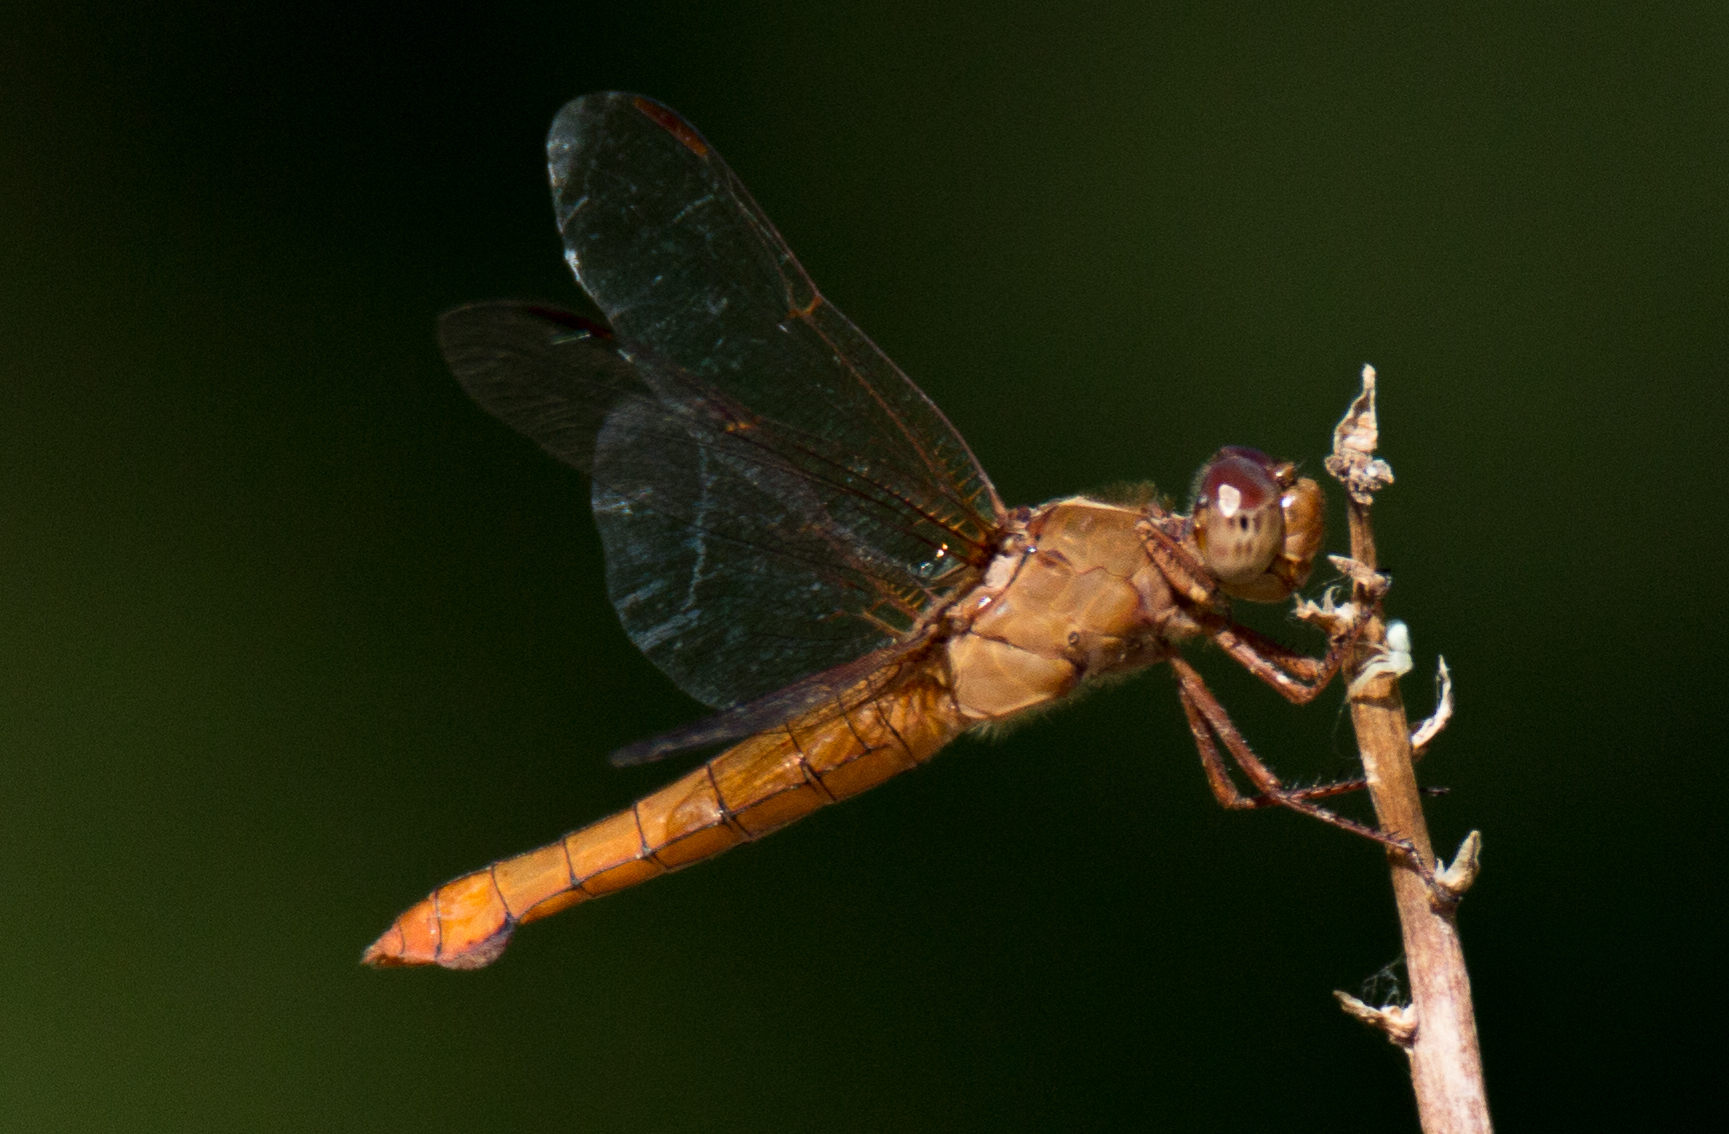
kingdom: Animalia
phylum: Arthropoda
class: Insecta
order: Odonata
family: Libellulidae
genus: Libellula
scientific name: Libellula croceipennis
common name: Neon skimmer
